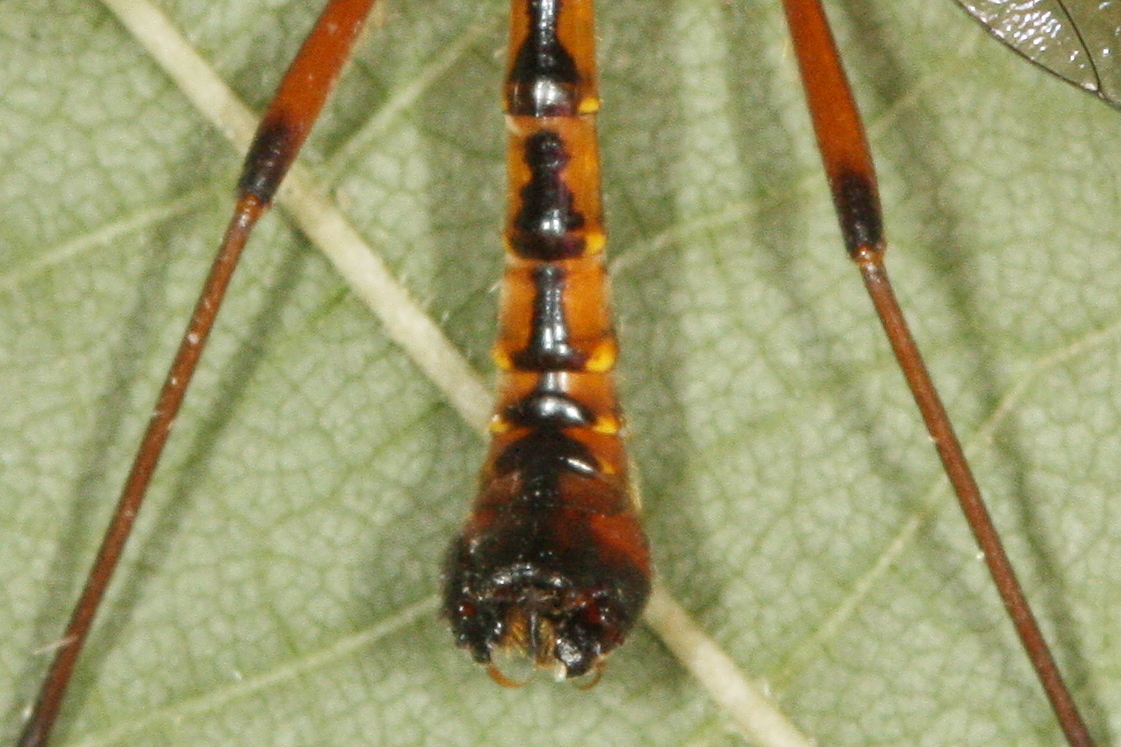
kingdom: Animalia
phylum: Arthropoda
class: Insecta
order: Diptera
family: Tipulidae
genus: Ctenophora
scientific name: Ctenophora pectinicornis
